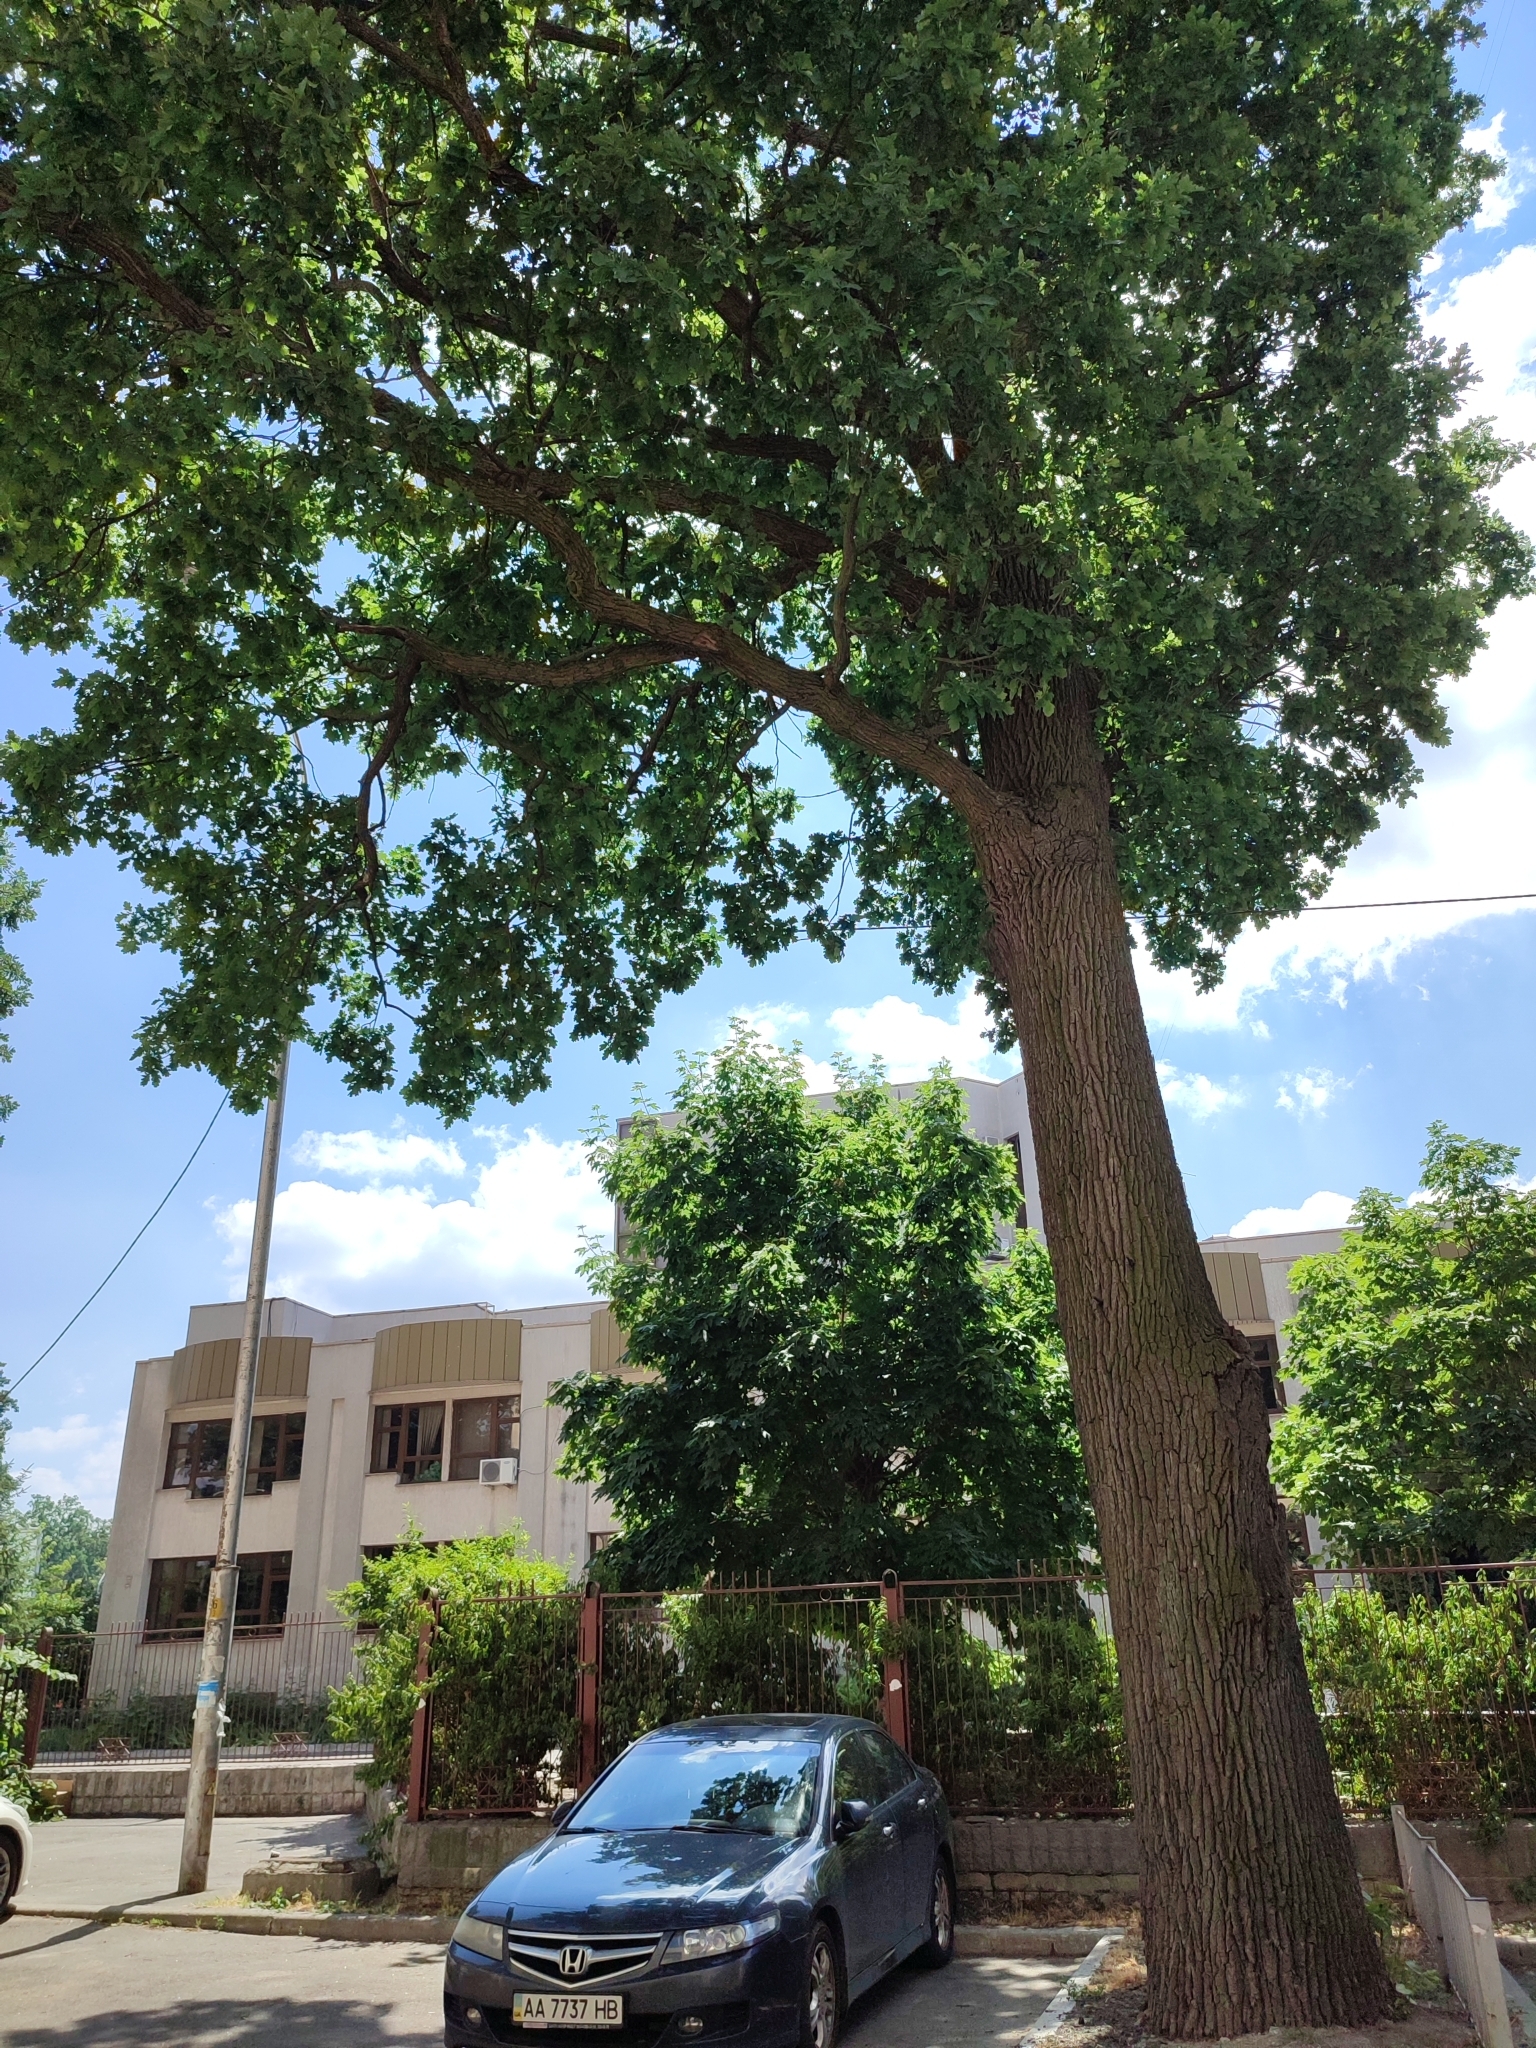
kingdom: Plantae
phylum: Tracheophyta
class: Magnoliopsida
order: Fagales
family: Fagaceae
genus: Quercus
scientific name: Quercus robur
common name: Pedunculate oak
